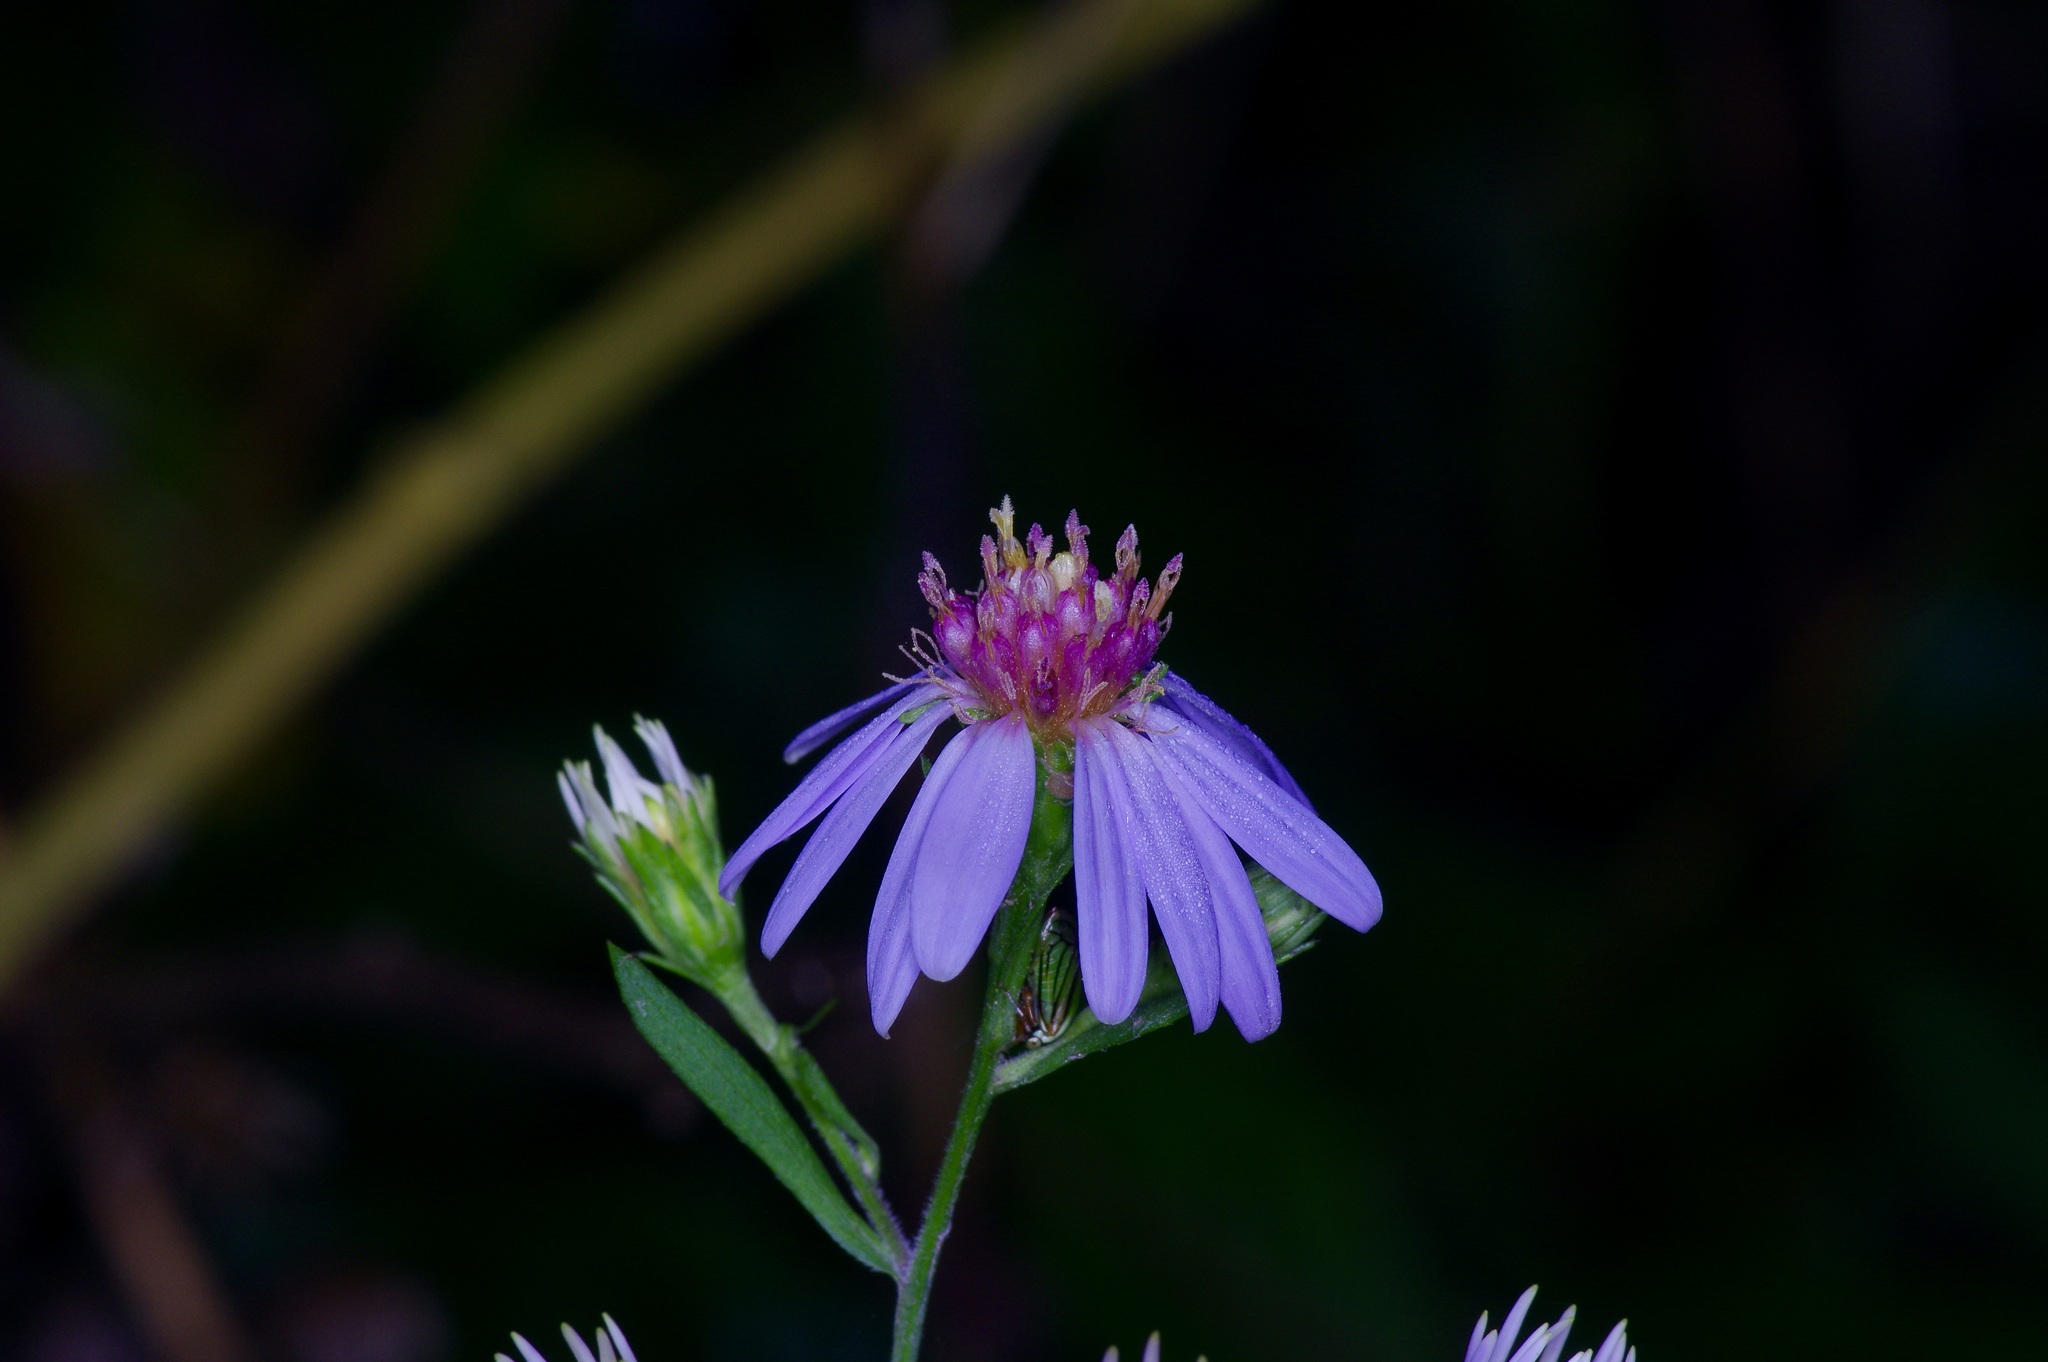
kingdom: Plantae
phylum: Tracheophyta
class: Magnoliopsida
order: Asterales
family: Asteraceae
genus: Symphyotrichum
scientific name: Symphyotrichum drummondii
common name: Drummond's aster
